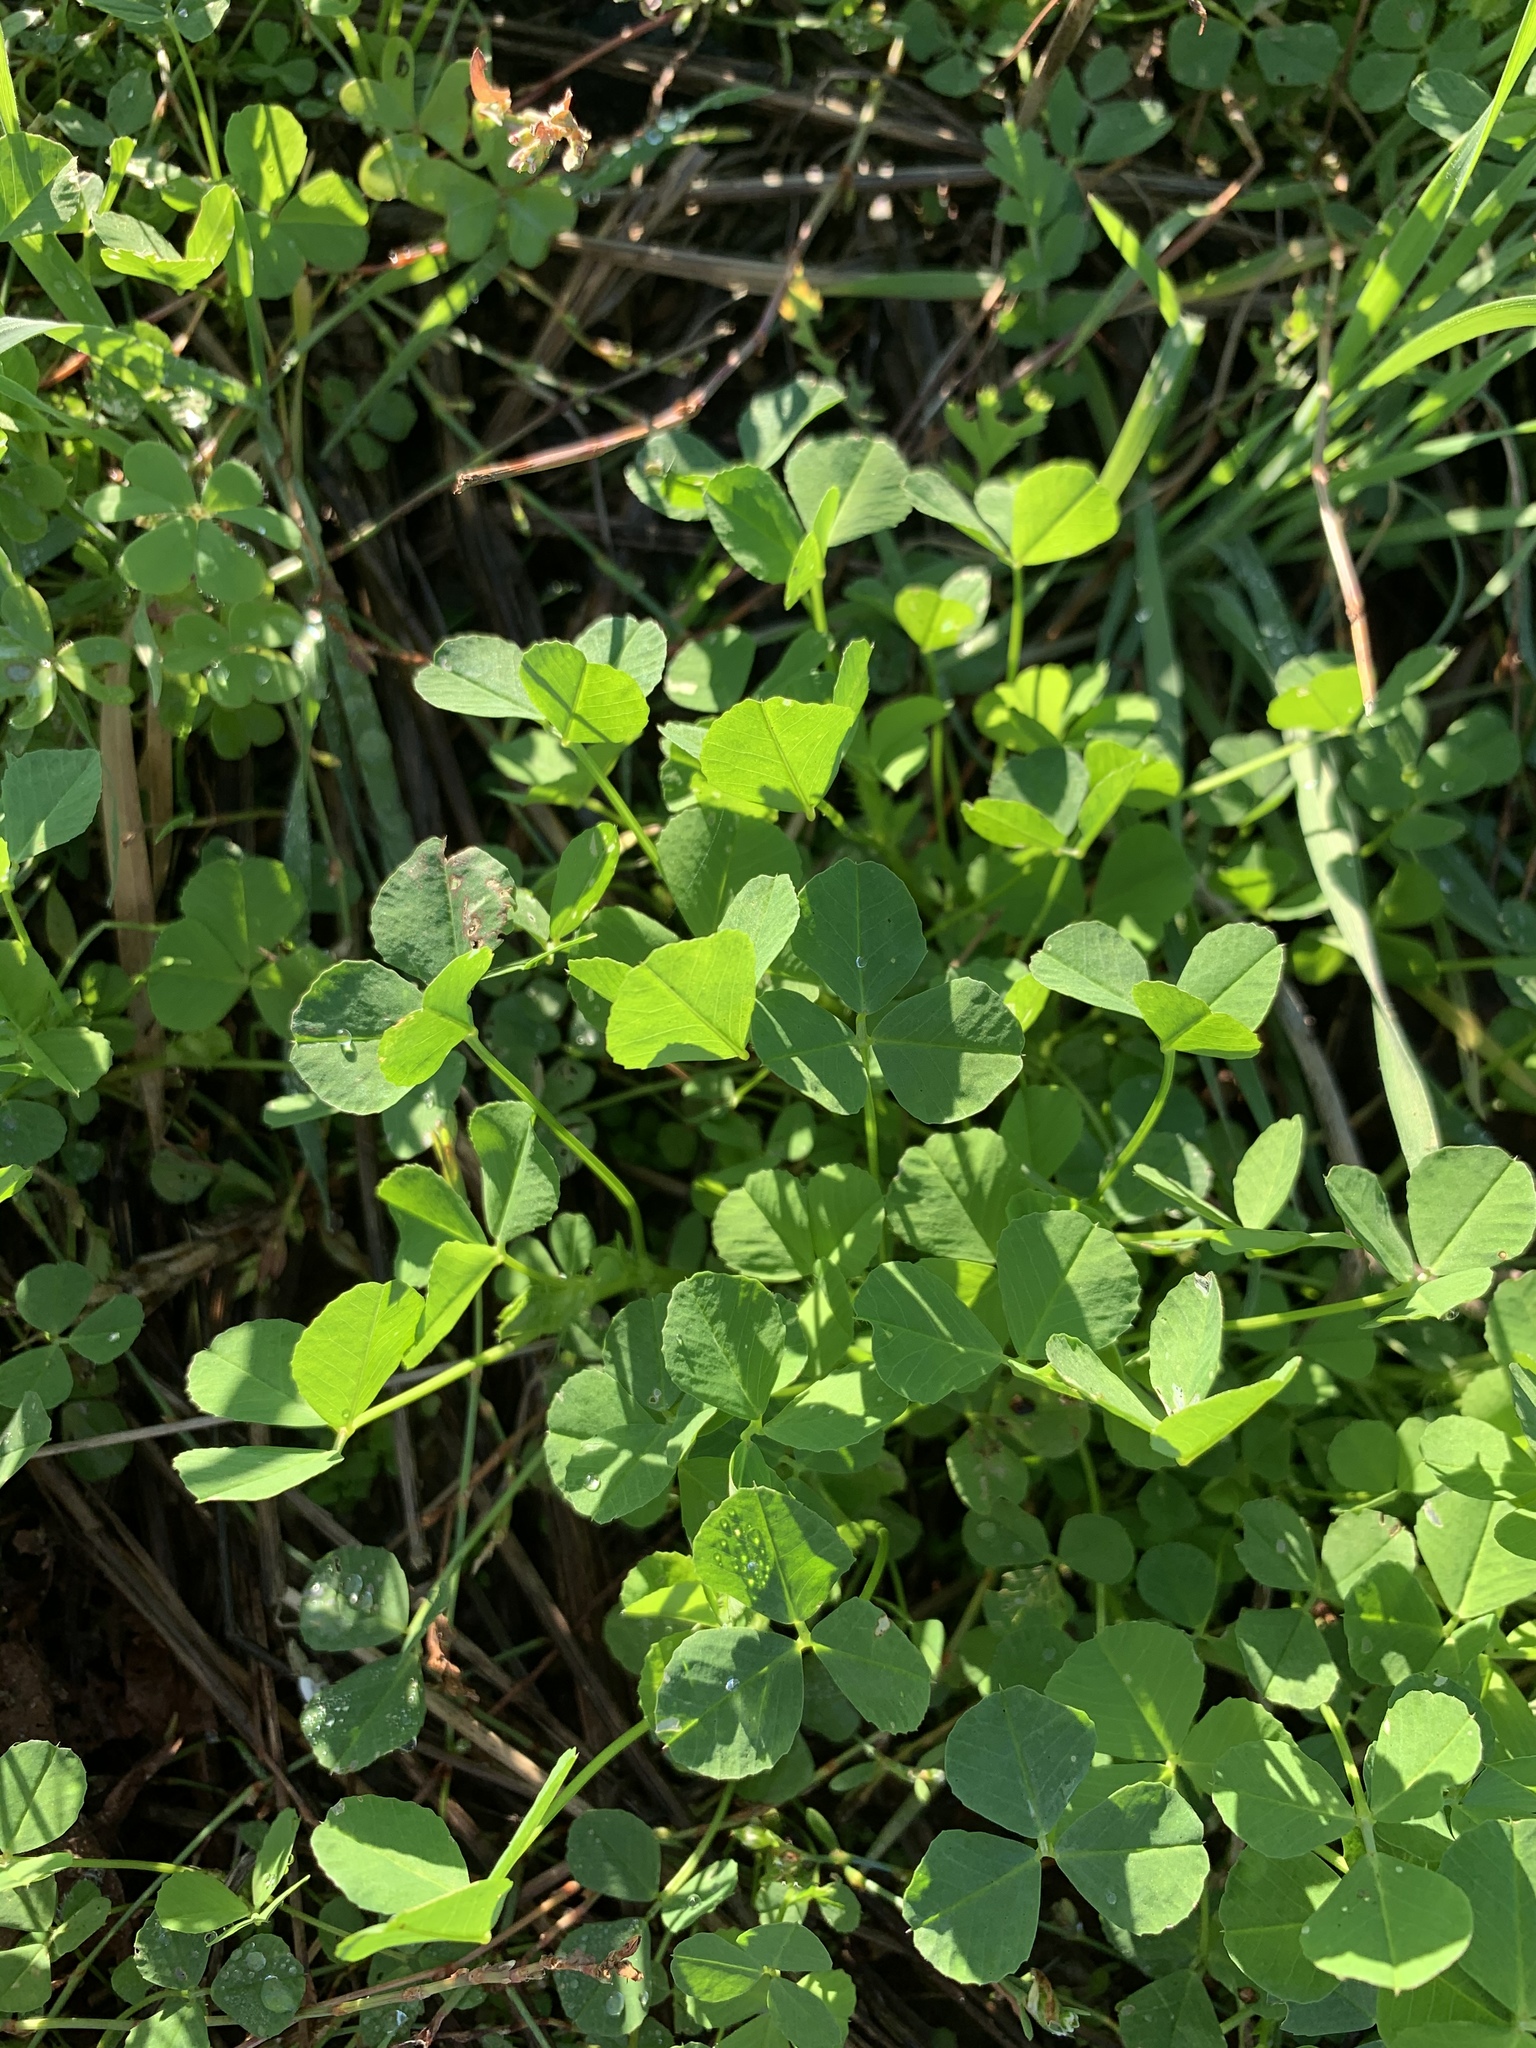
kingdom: Plantae
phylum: Tracheophyta
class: Magnoliopsida
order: Fabales
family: Fabaceae
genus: Medicago
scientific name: Medicago polymorpha
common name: Burclover
